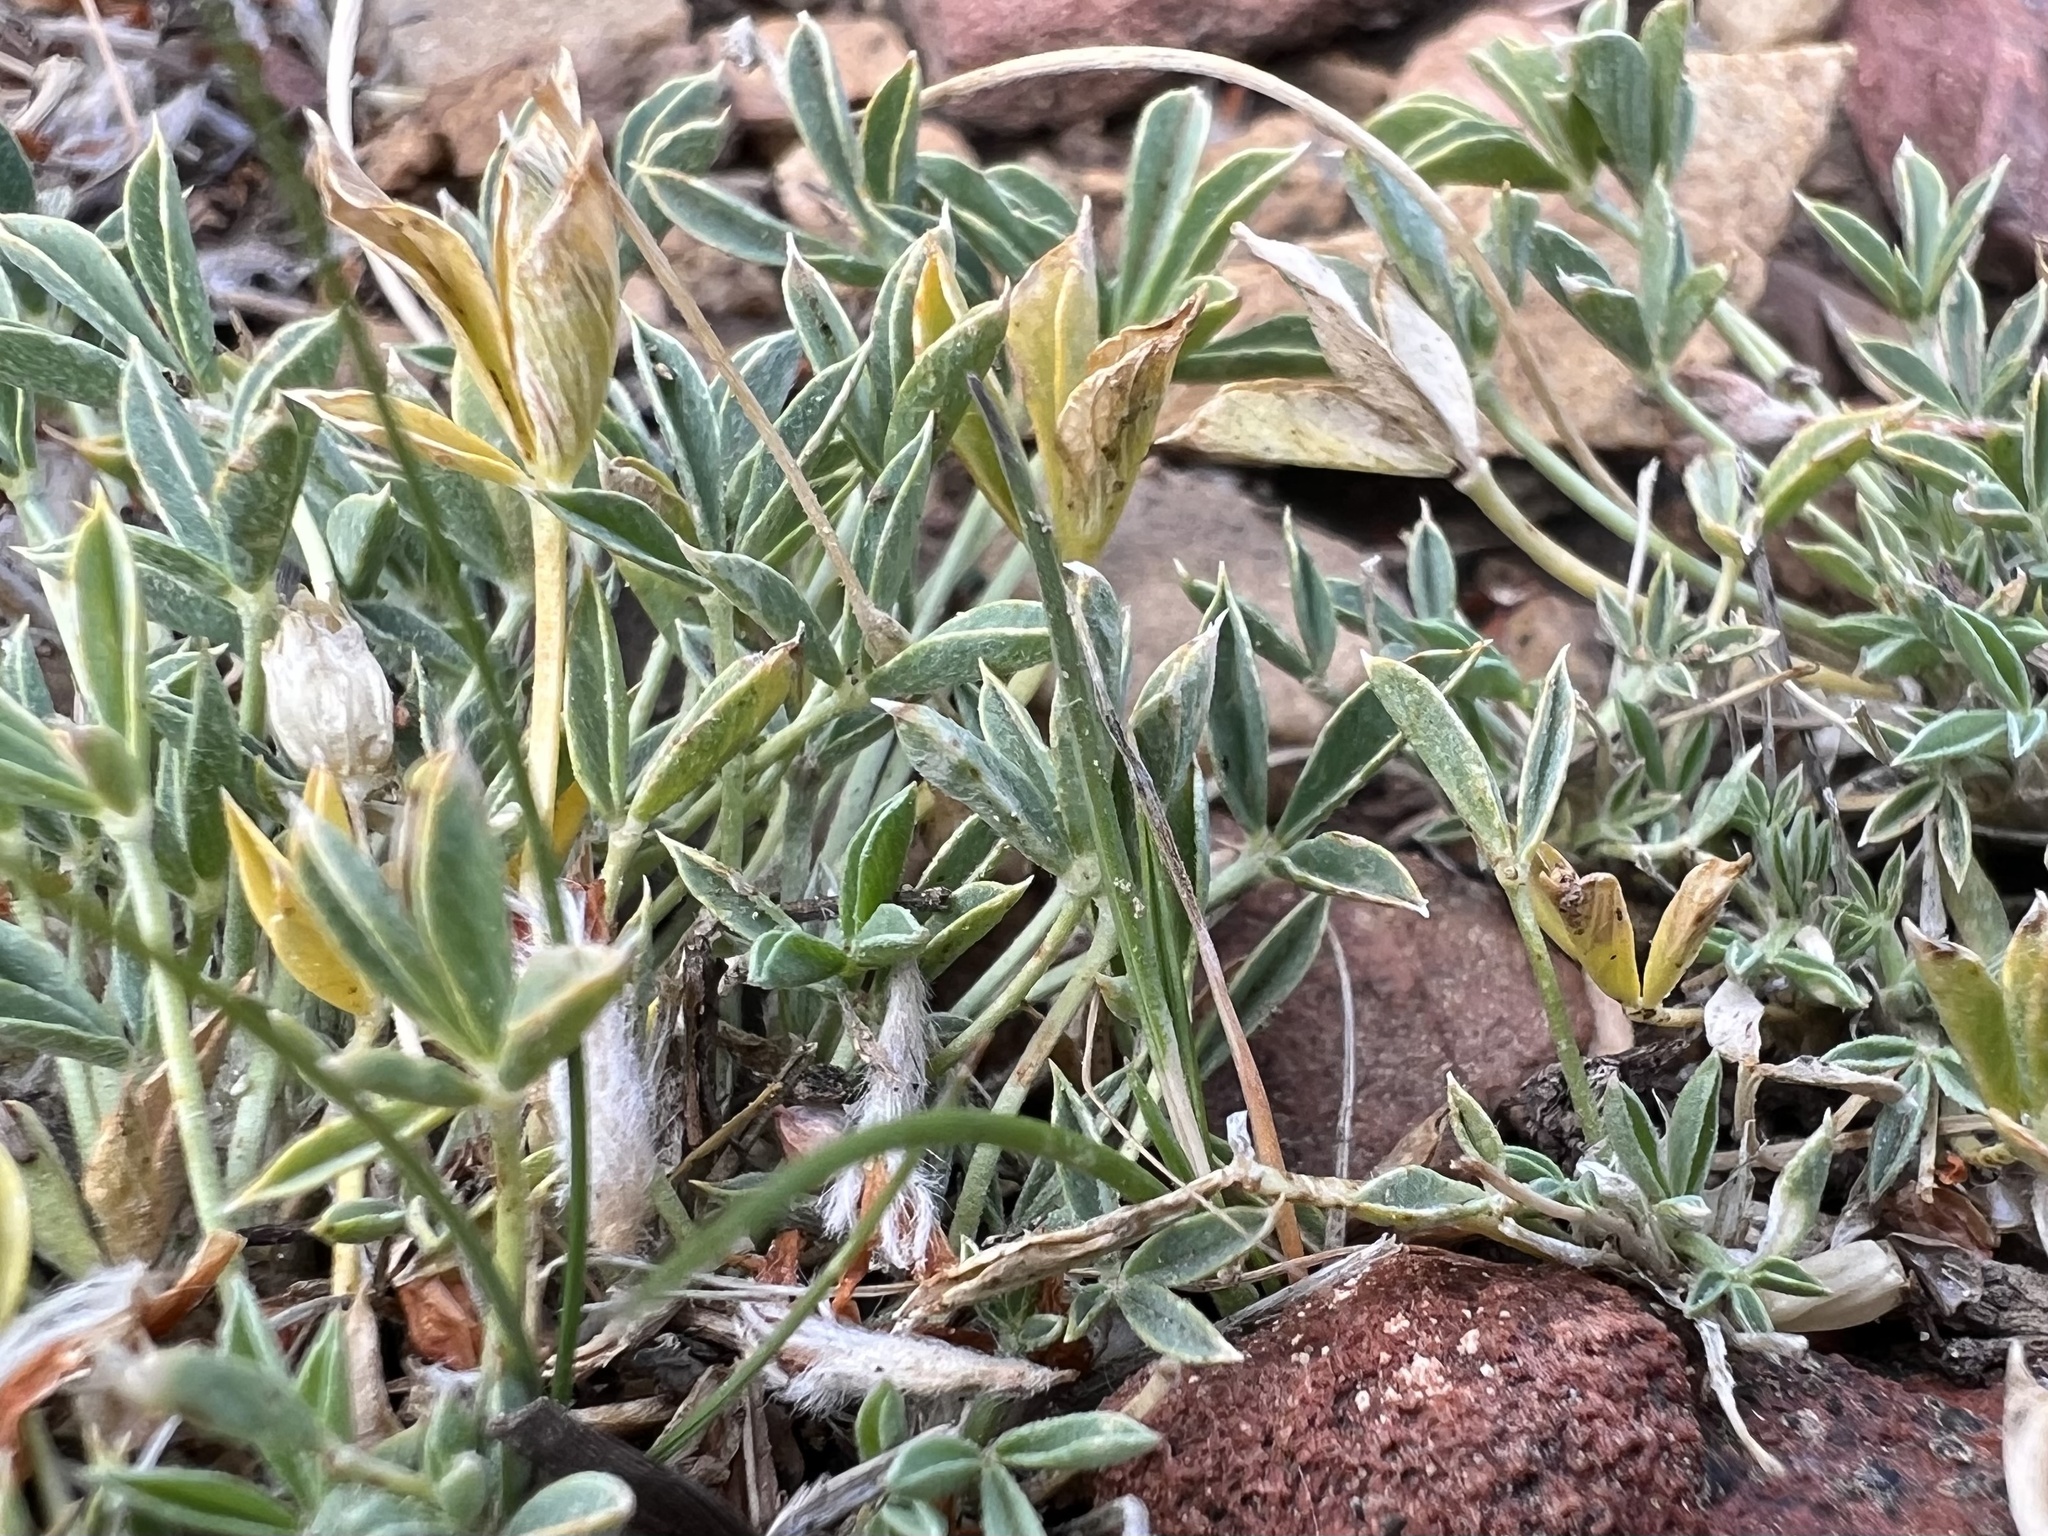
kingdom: Plantae
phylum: Tracheophyta
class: Magnoliopsida
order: Fabales
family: Fabaceae
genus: Trifolium
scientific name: Trifolium andersonii
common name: Anderson's clover
